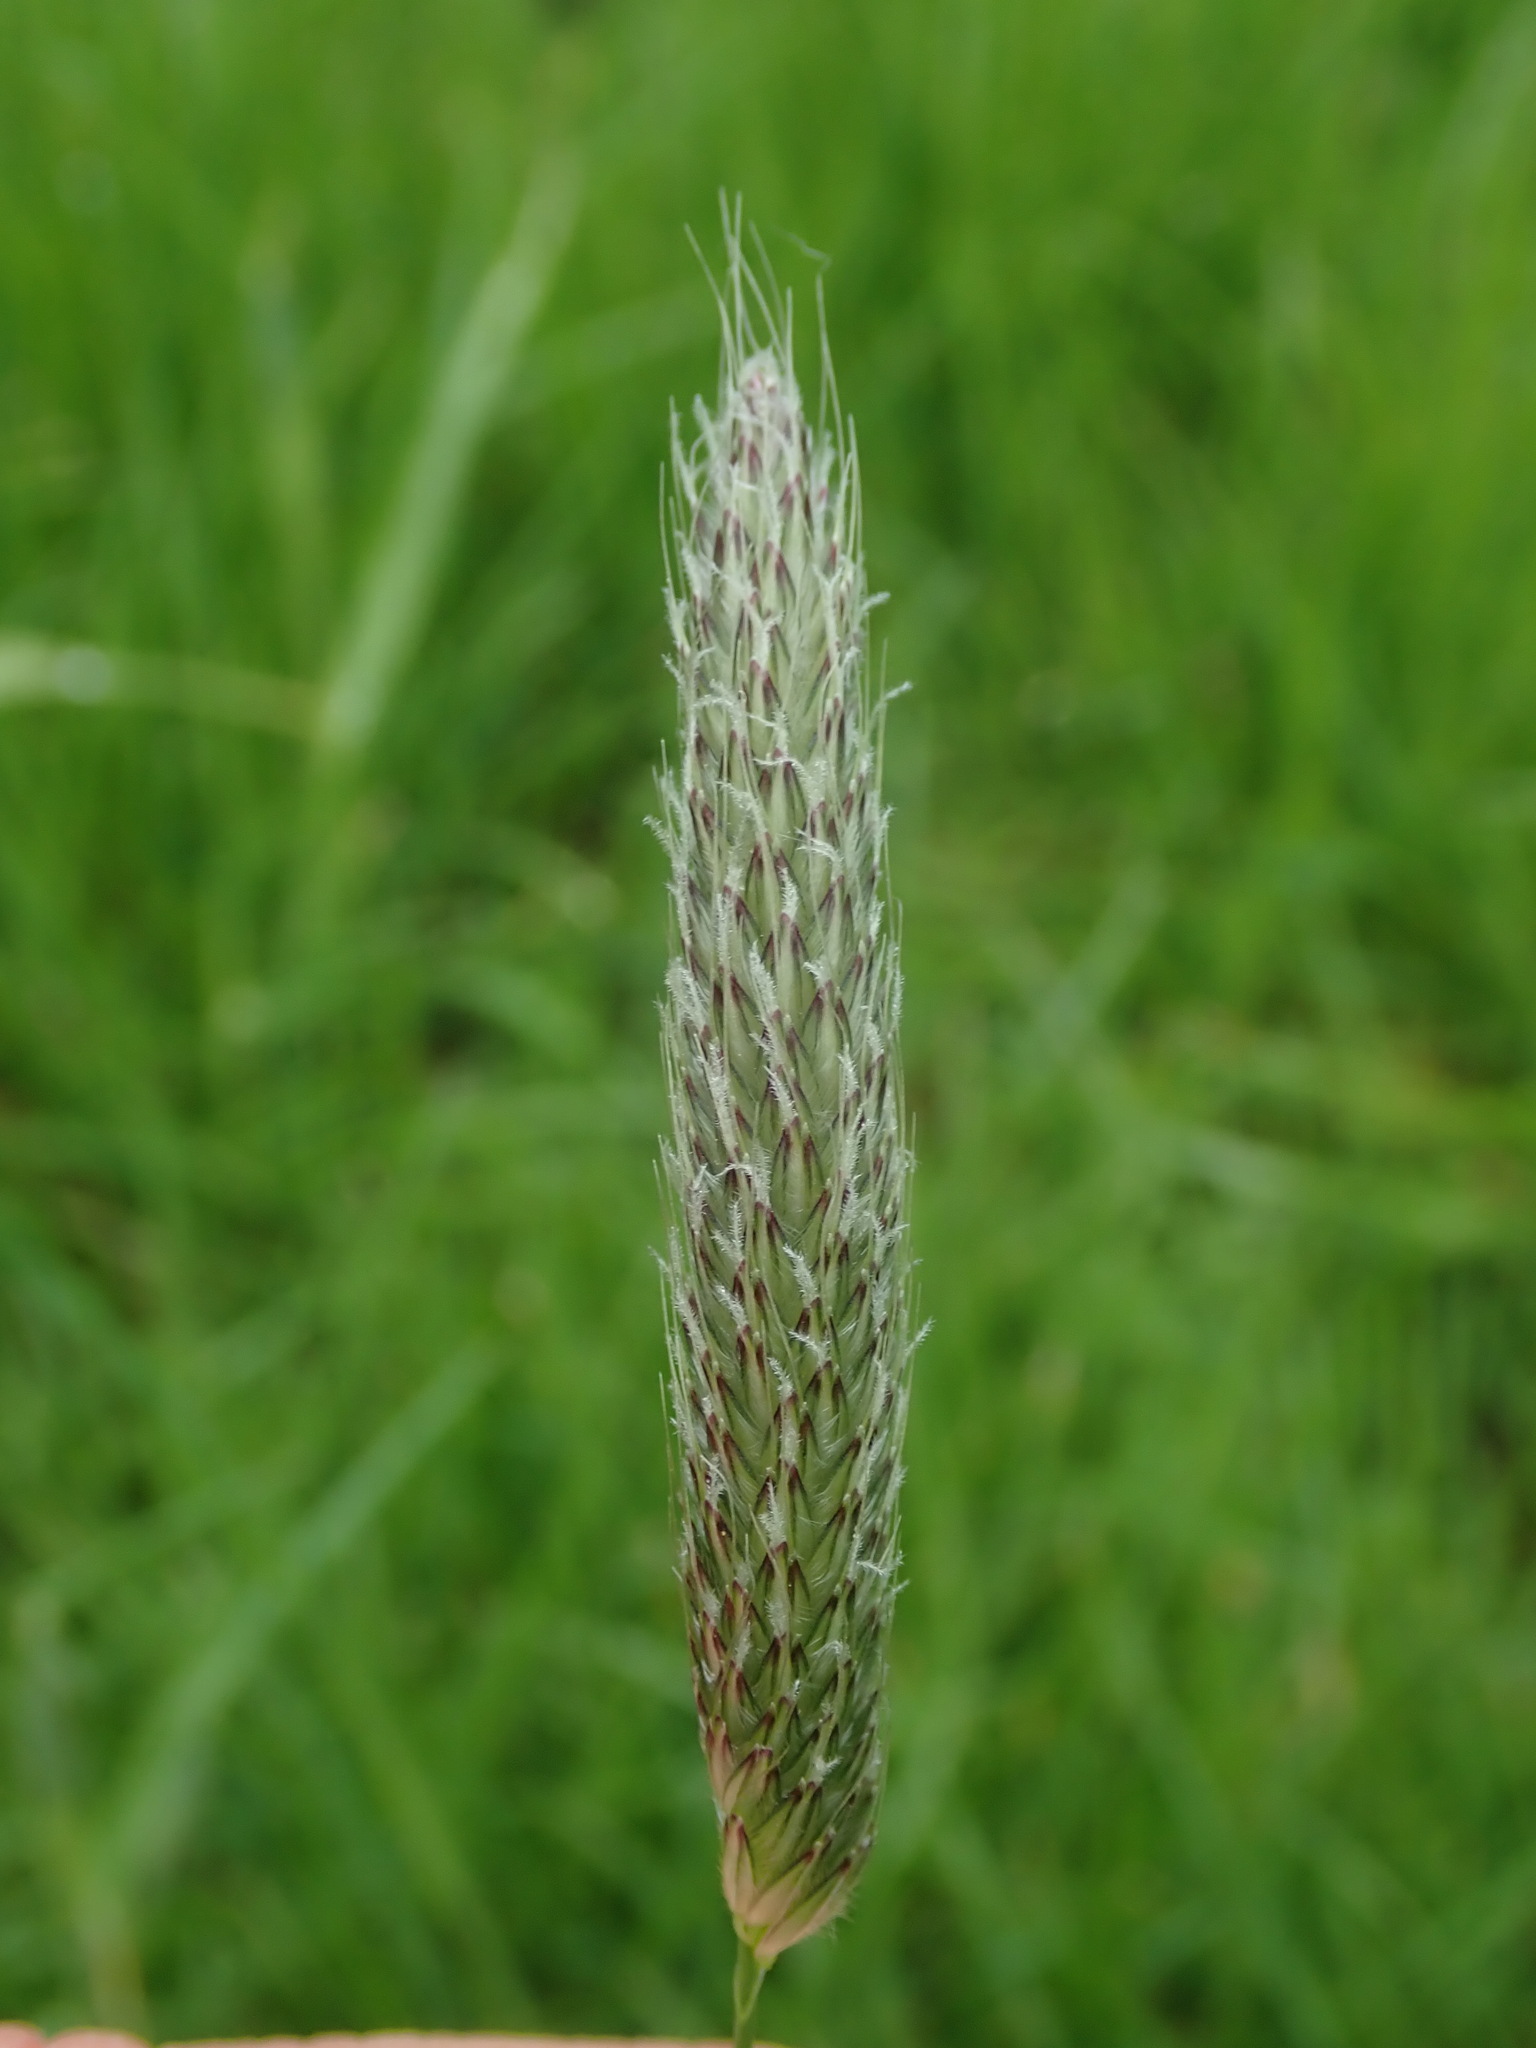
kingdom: Plantae
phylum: Tracheophyta
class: Liliopsida
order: Poales
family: Poaceae
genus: Alopecurus
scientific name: Alopecurus pratensis
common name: Meadow foxtail
